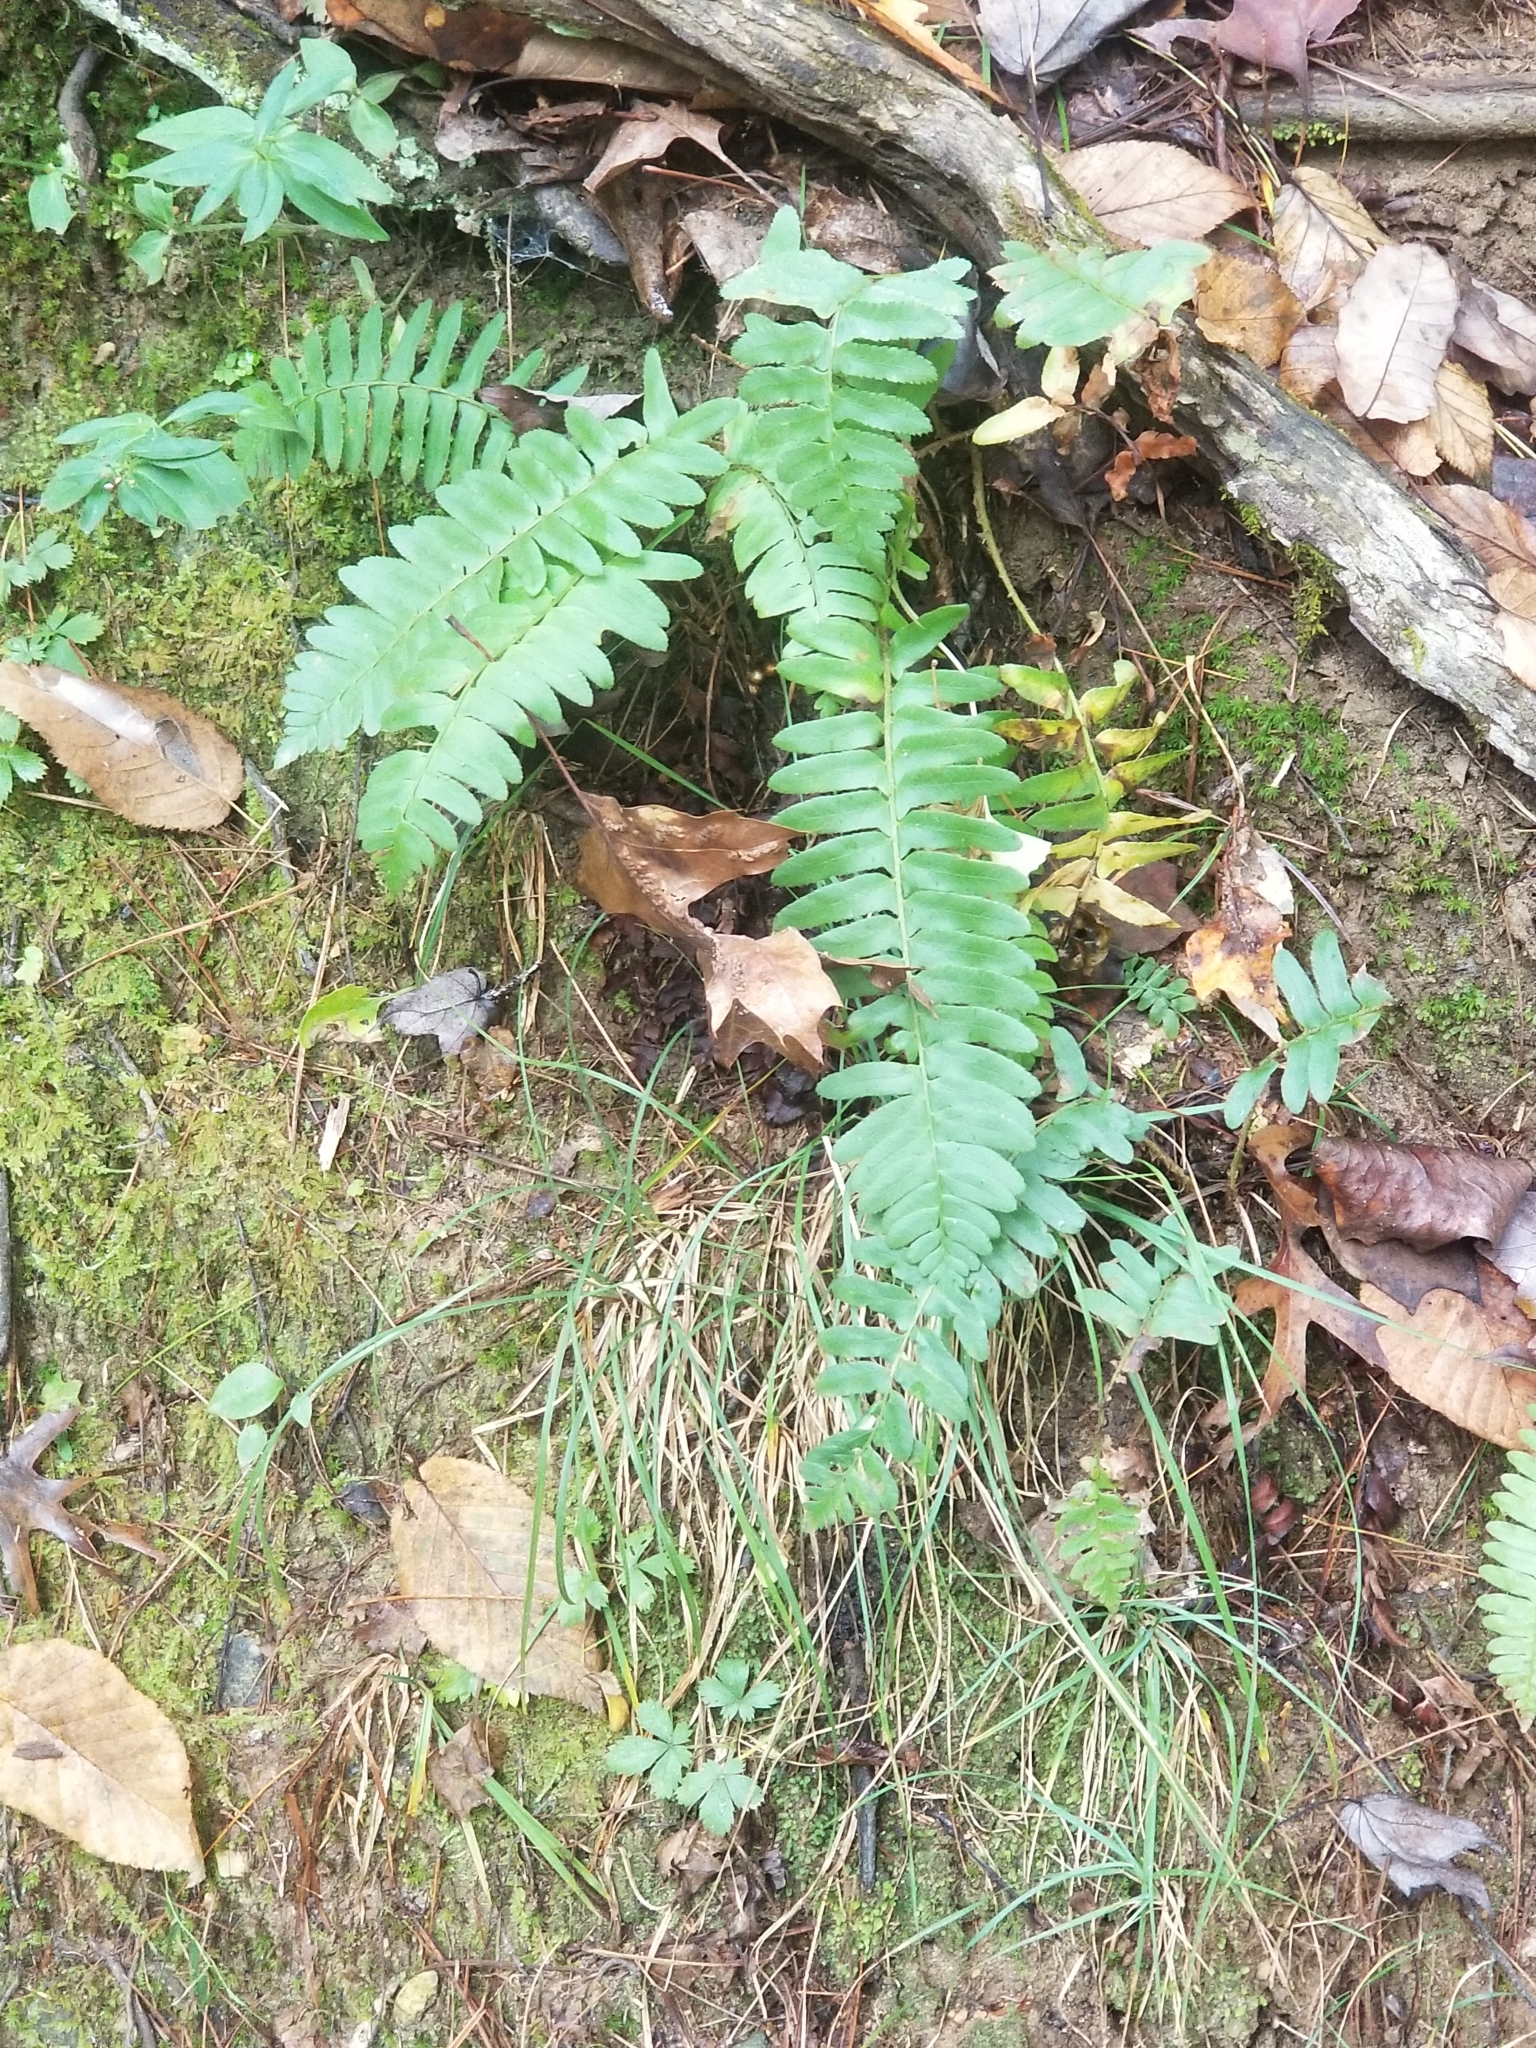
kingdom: Plantae
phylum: Tracheophyta
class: Polypodiopsida
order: Polypodiales
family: Dryopteridaceae
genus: Polystichum
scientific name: Polystichum acrostichoides
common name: Christmas fern
